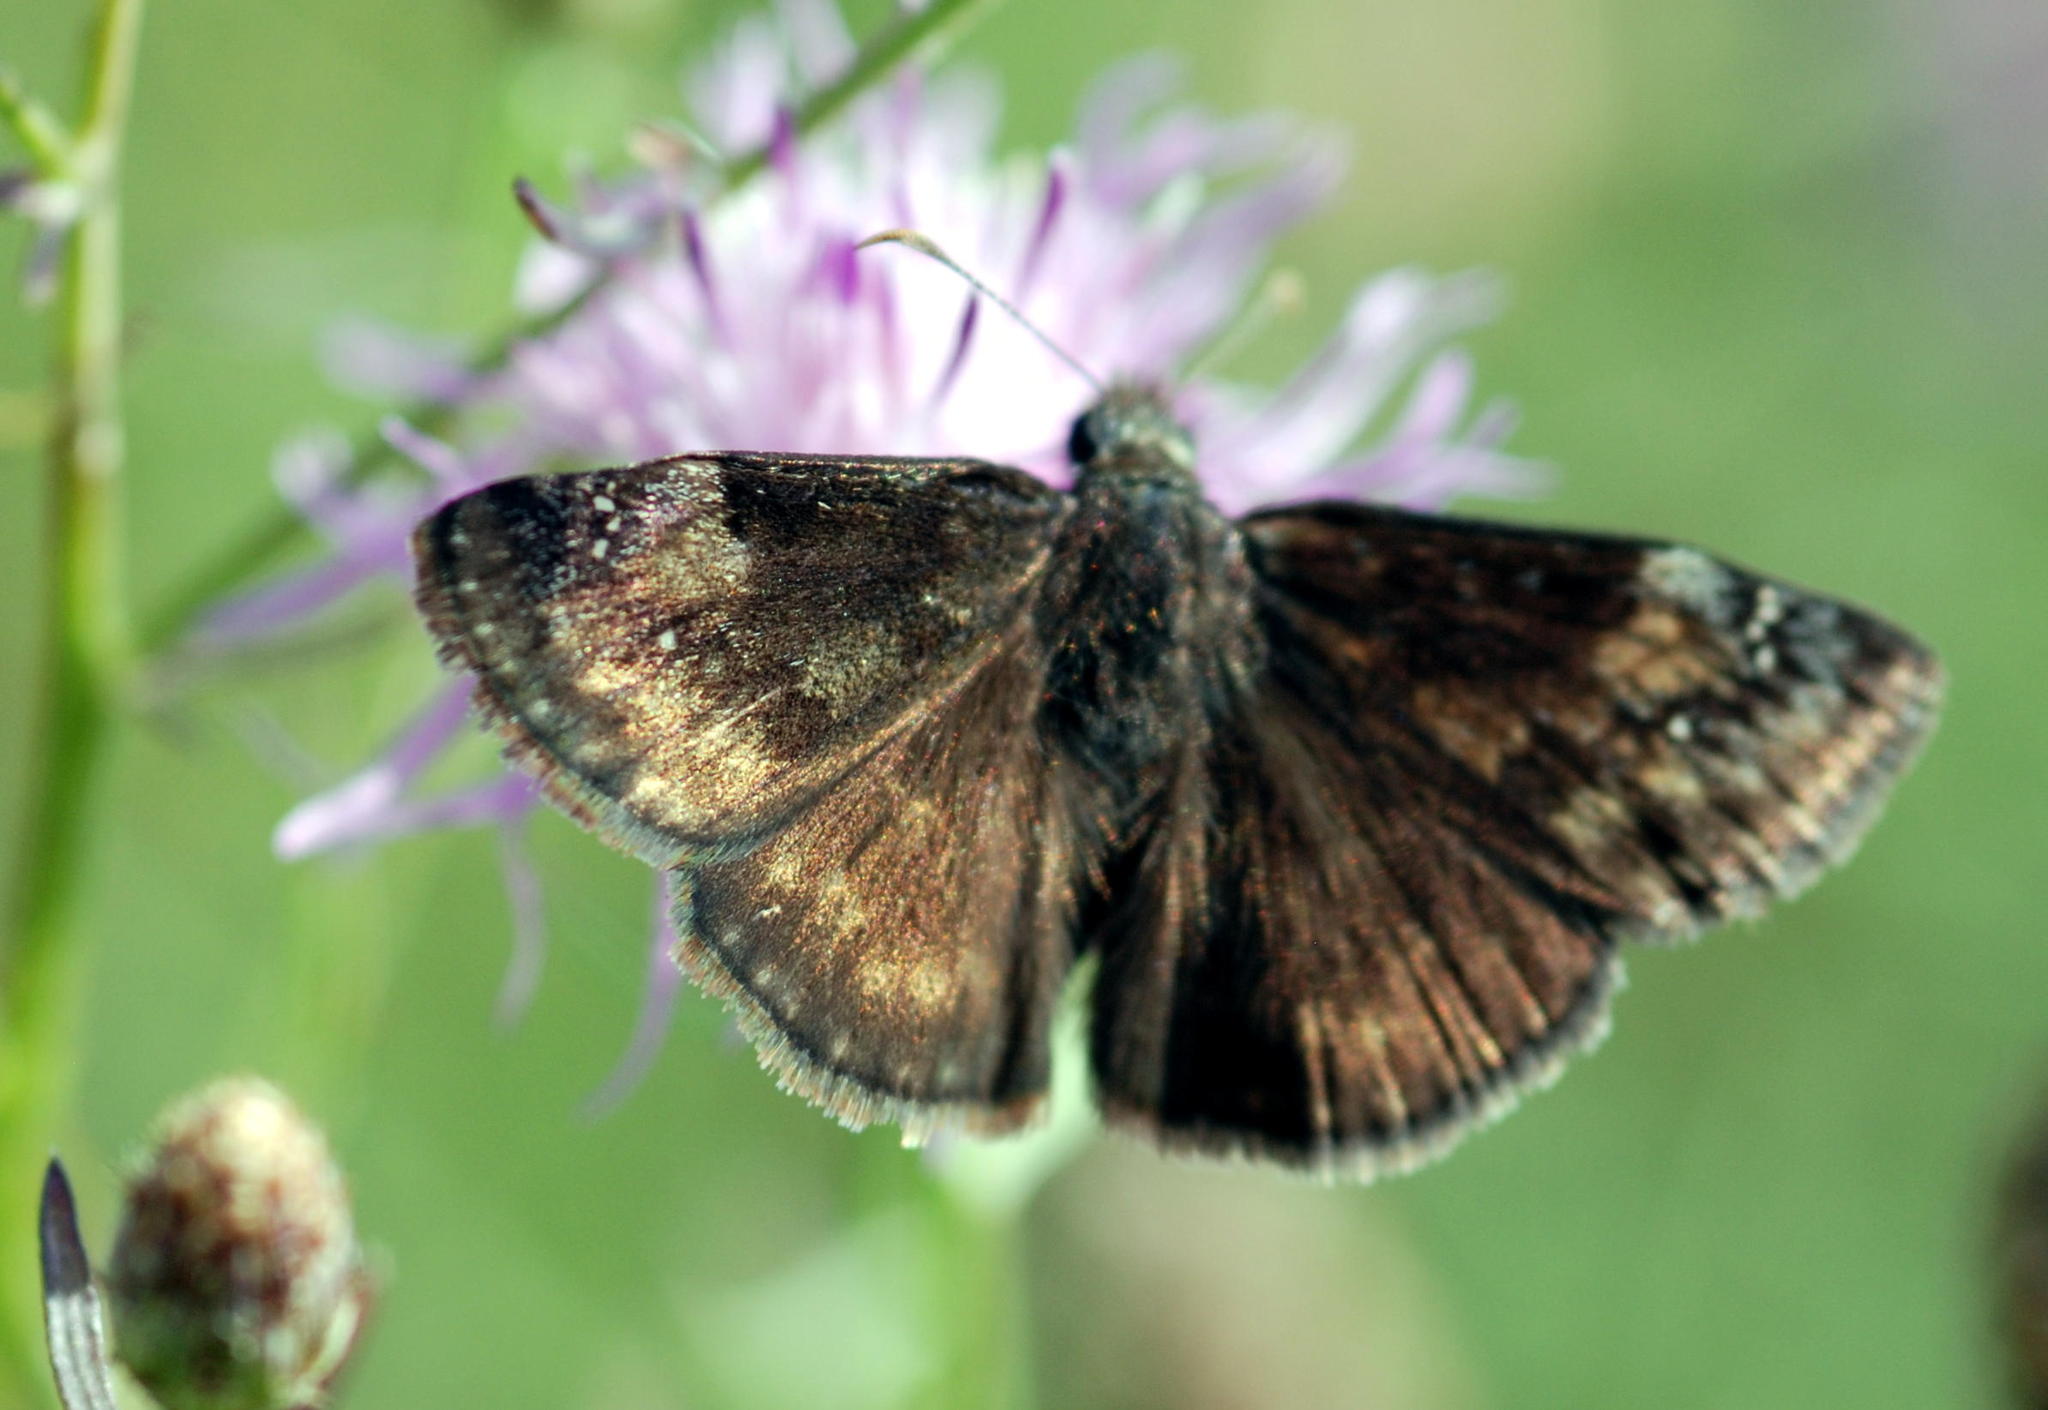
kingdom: Animalia
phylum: Arthropoda
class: Insecta
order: Lepidoptera
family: Hesperiidae
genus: Erynnis
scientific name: Erynnis baptisiae
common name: Wild indigo duskywing
